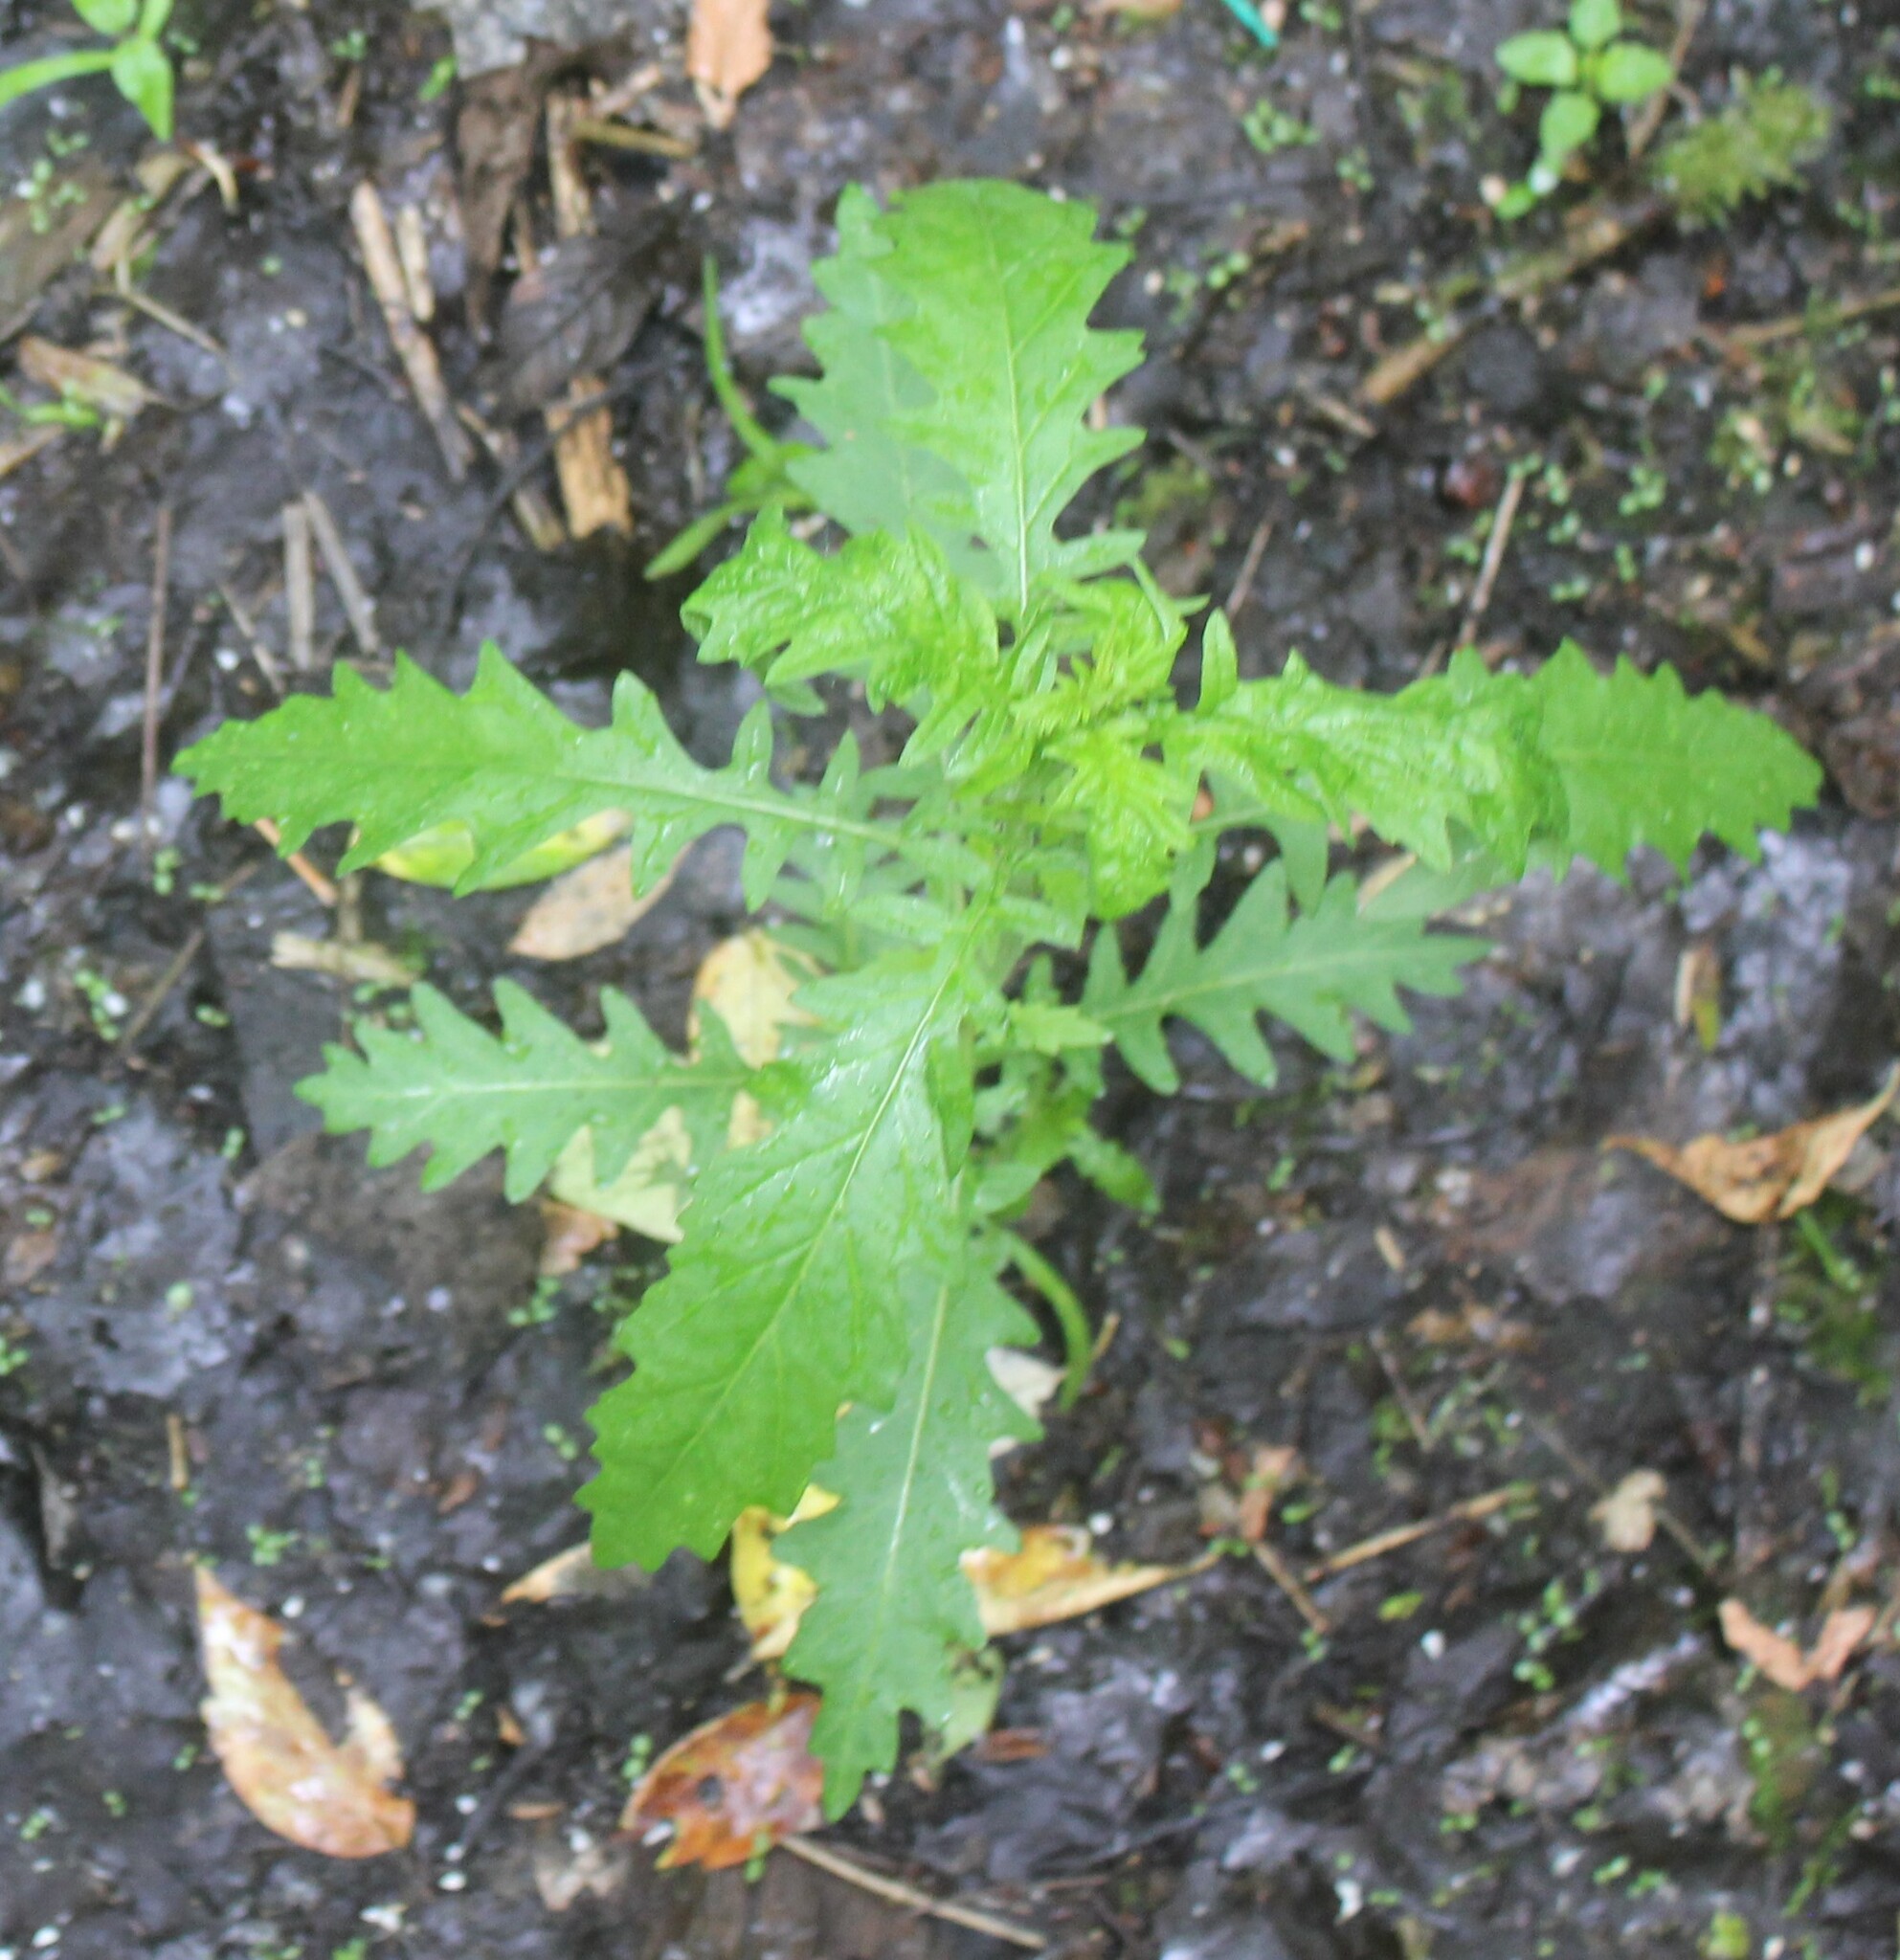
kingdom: Plantae
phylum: Tracheophyta
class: Magnoliopsida
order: Lamiales
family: Lamiaceae
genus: Lycopus
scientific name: Lycopus europaeus
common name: European bugleweed
